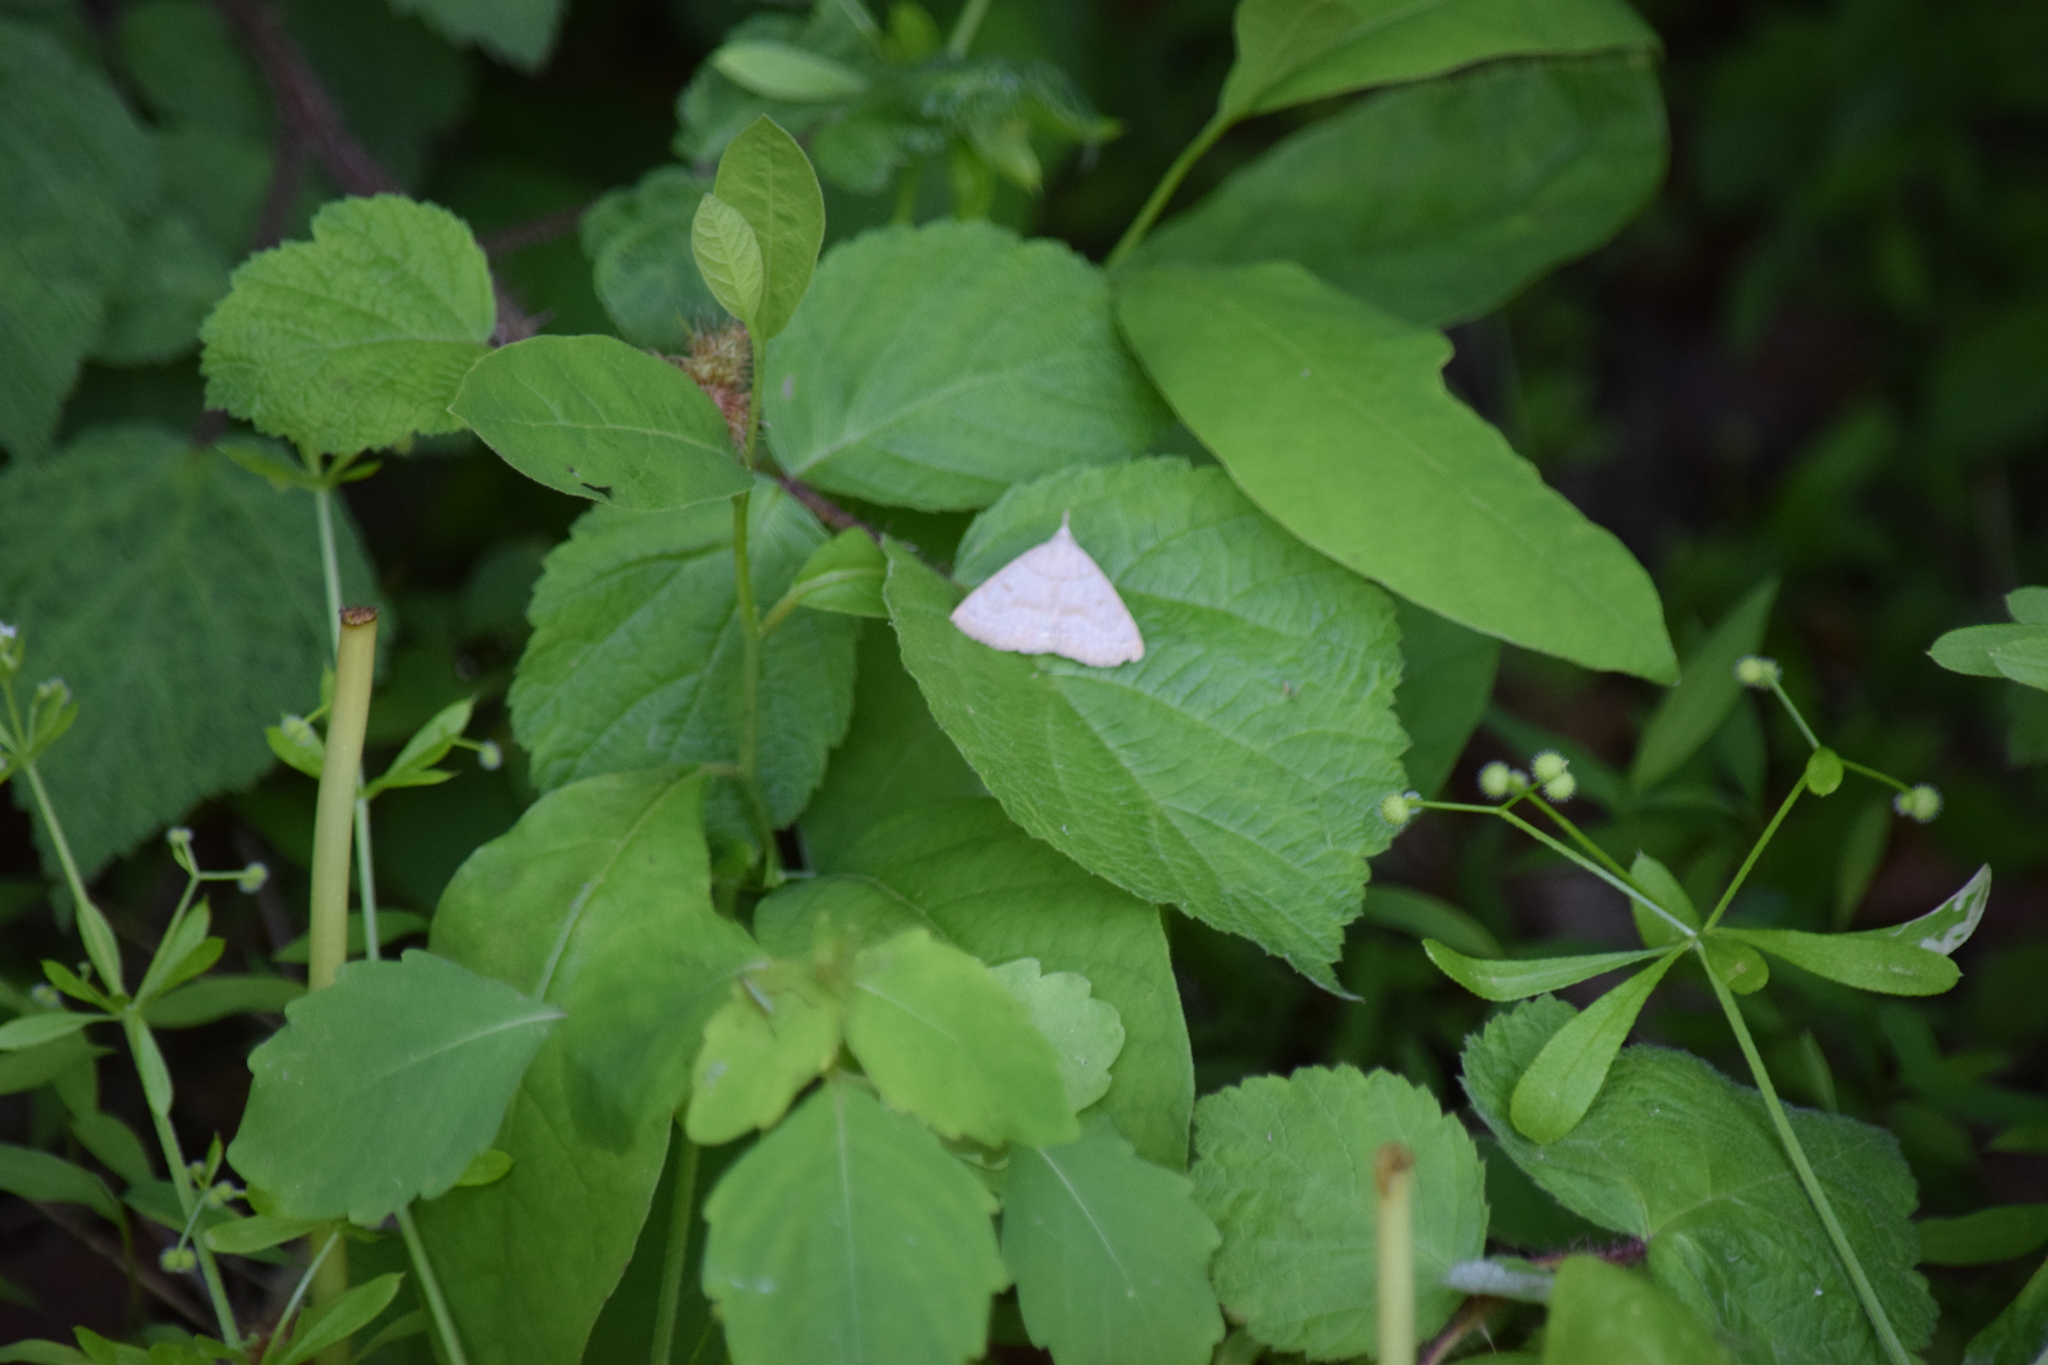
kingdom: Animalia
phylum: Arthropoda
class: Insecta
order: Lepidoptera
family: Erebidae
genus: Macrochilo
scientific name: Macrochilo morbidalis
